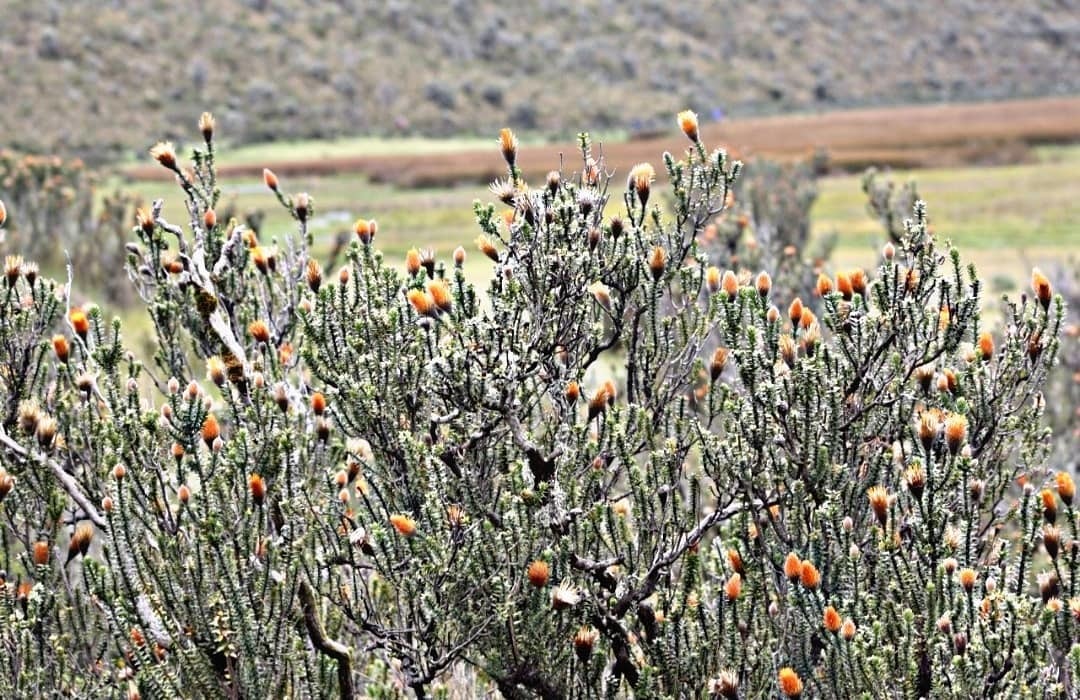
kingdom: Plantae
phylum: Tracheophyta
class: Magnoliopsida
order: Asterales
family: Asteraceae
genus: Chuquiraga
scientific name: Chuquiraga jussieui
